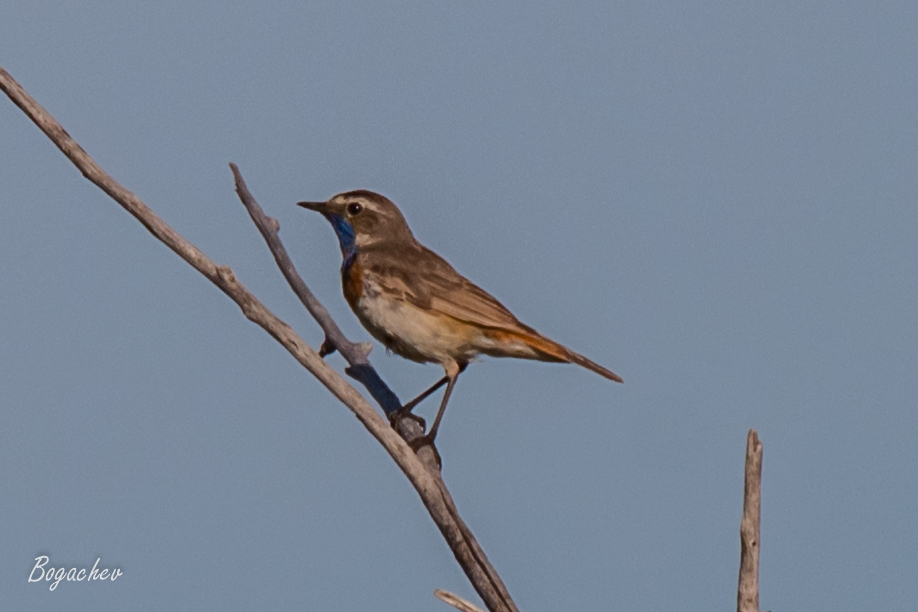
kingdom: Animalia
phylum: Chordata
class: Aves
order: Passeriformes
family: Muscicapidae
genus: Luscinia
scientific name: Luscinia svecica
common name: Bluethroat
